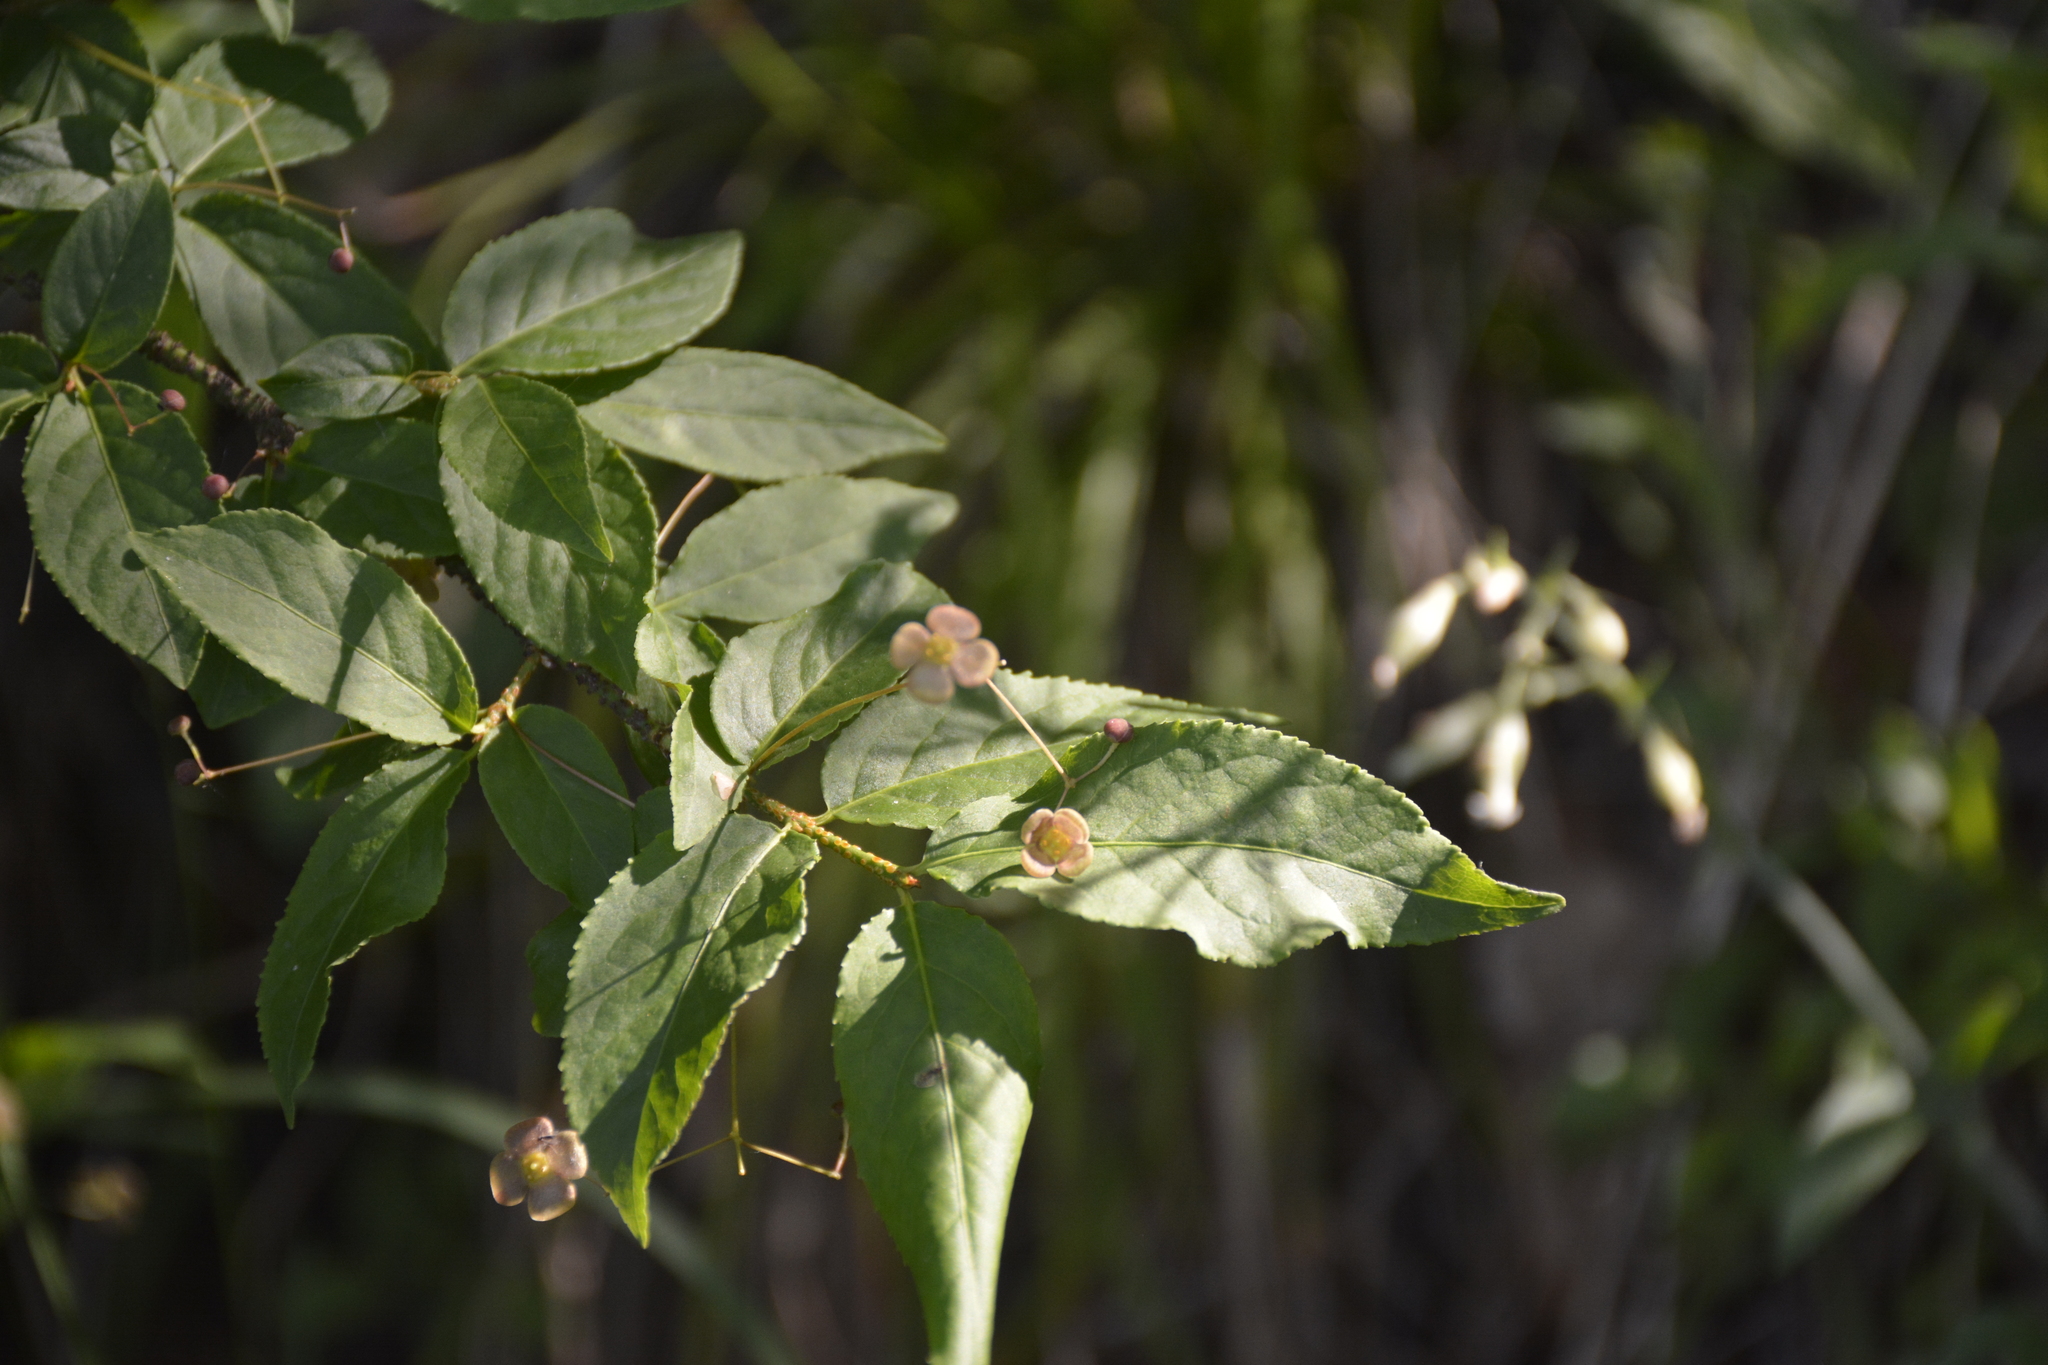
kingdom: Plantae
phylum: Tracheophyta
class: Magnoliopsida
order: Celastrales
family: Celastraceae
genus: Euonymus
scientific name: Euonymus verrucosus
